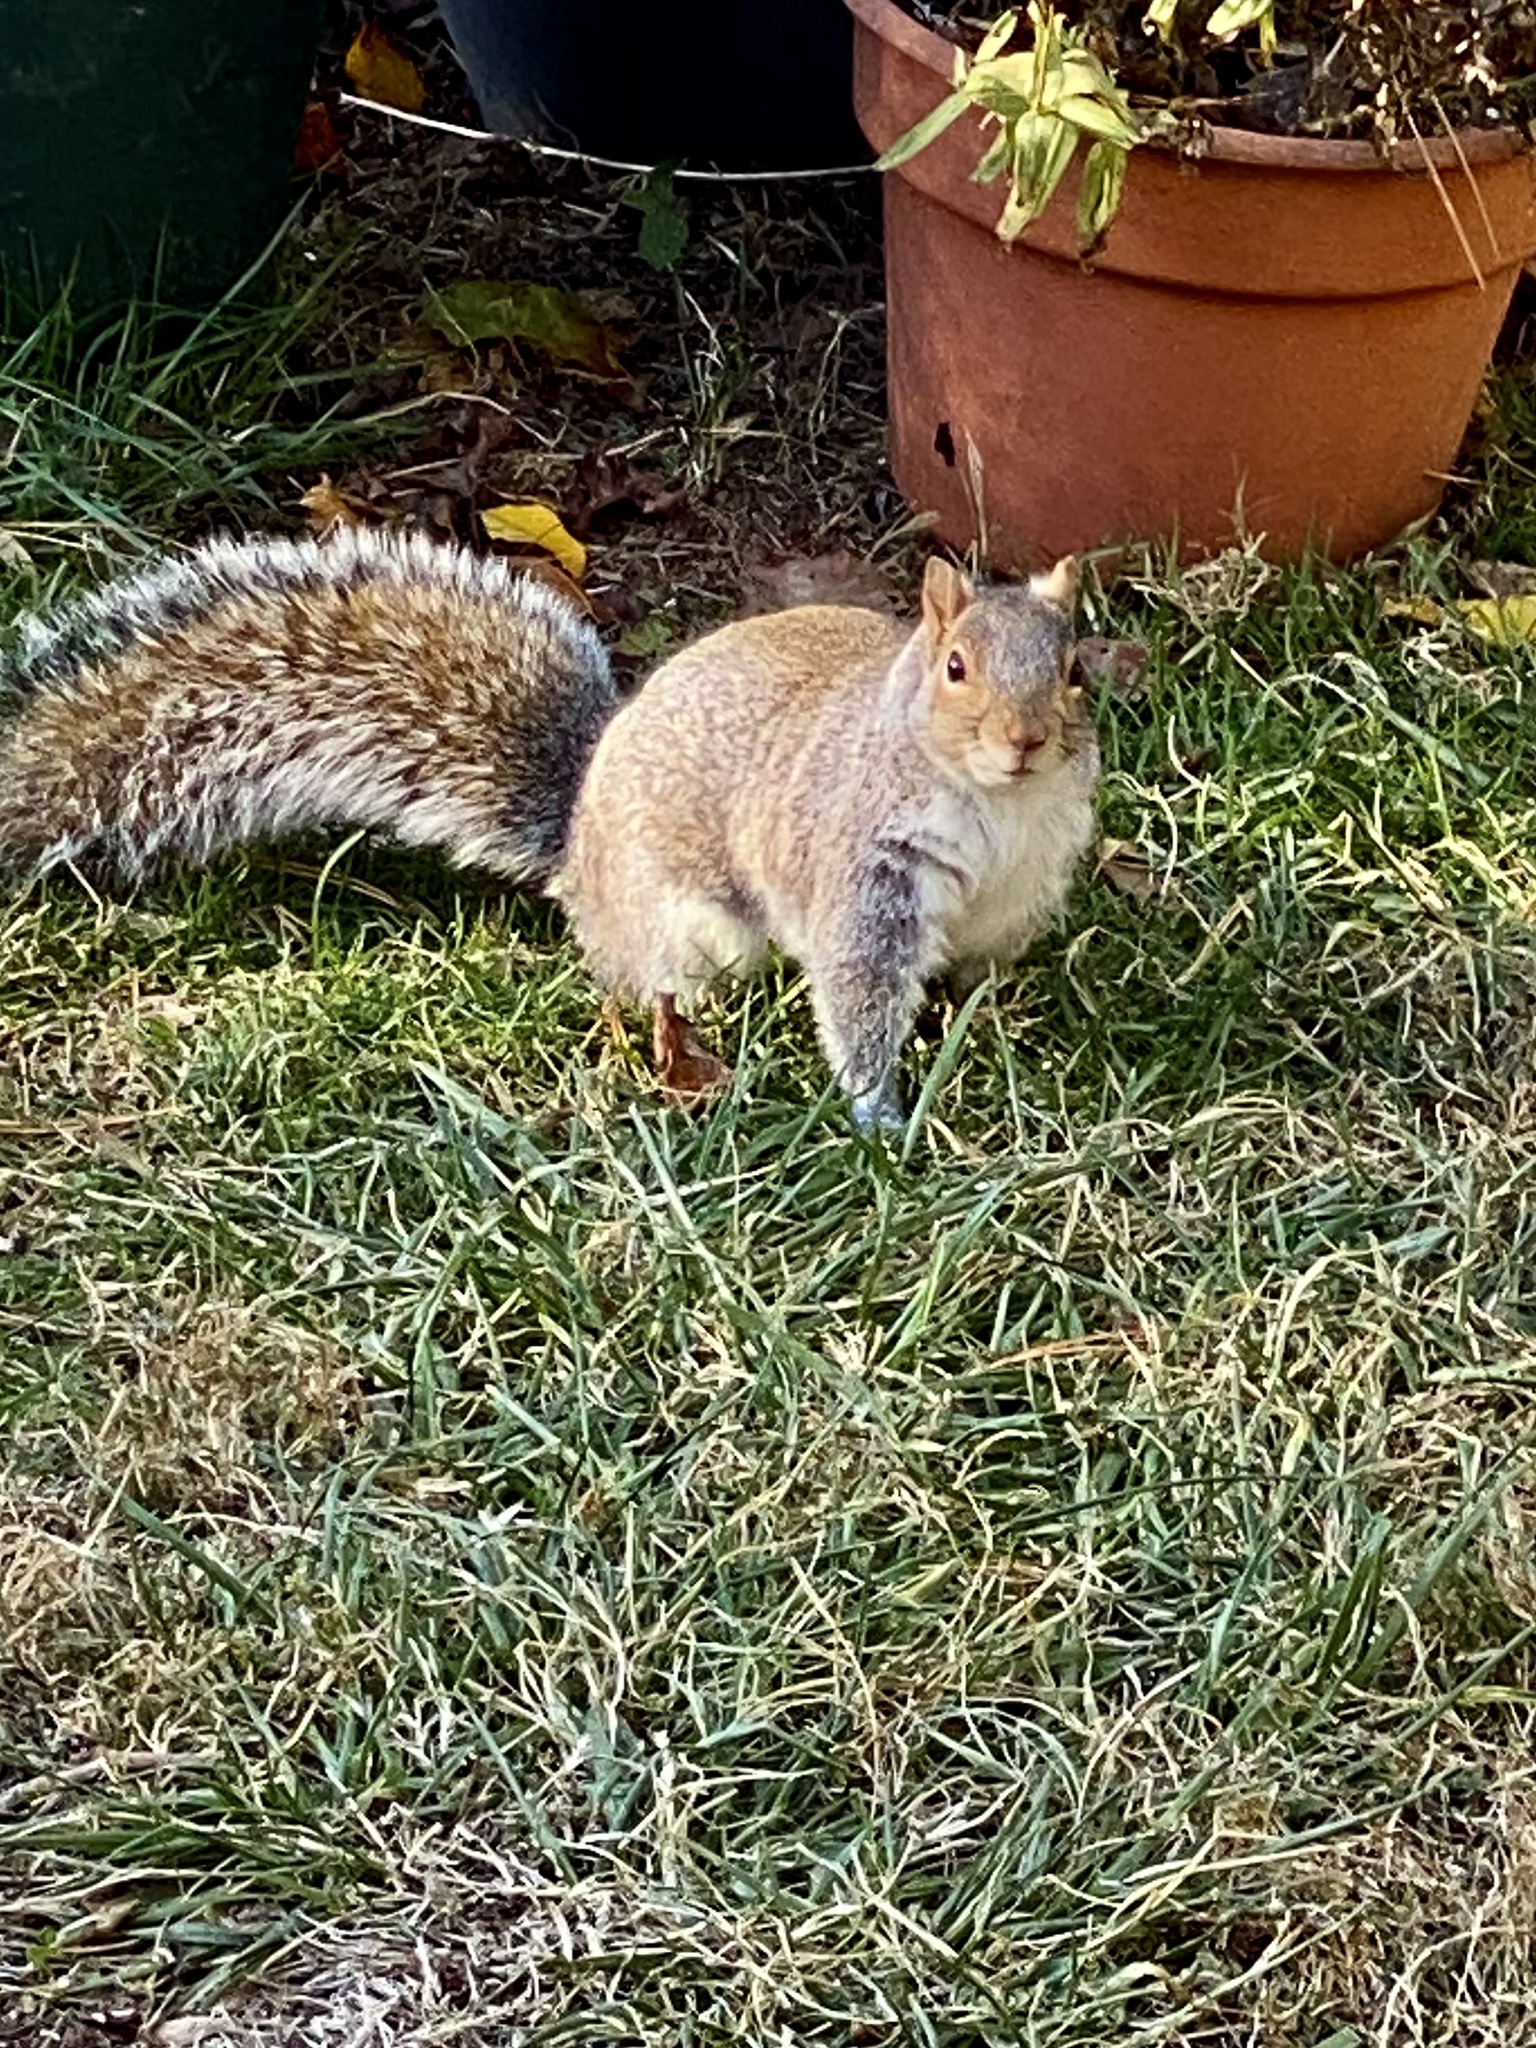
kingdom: Animalia
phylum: Chordata
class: Mammalia
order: Rodentia
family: Sciuridae
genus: Sciurus
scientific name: Sciurus carolinensis
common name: Eastern gray squirrel
